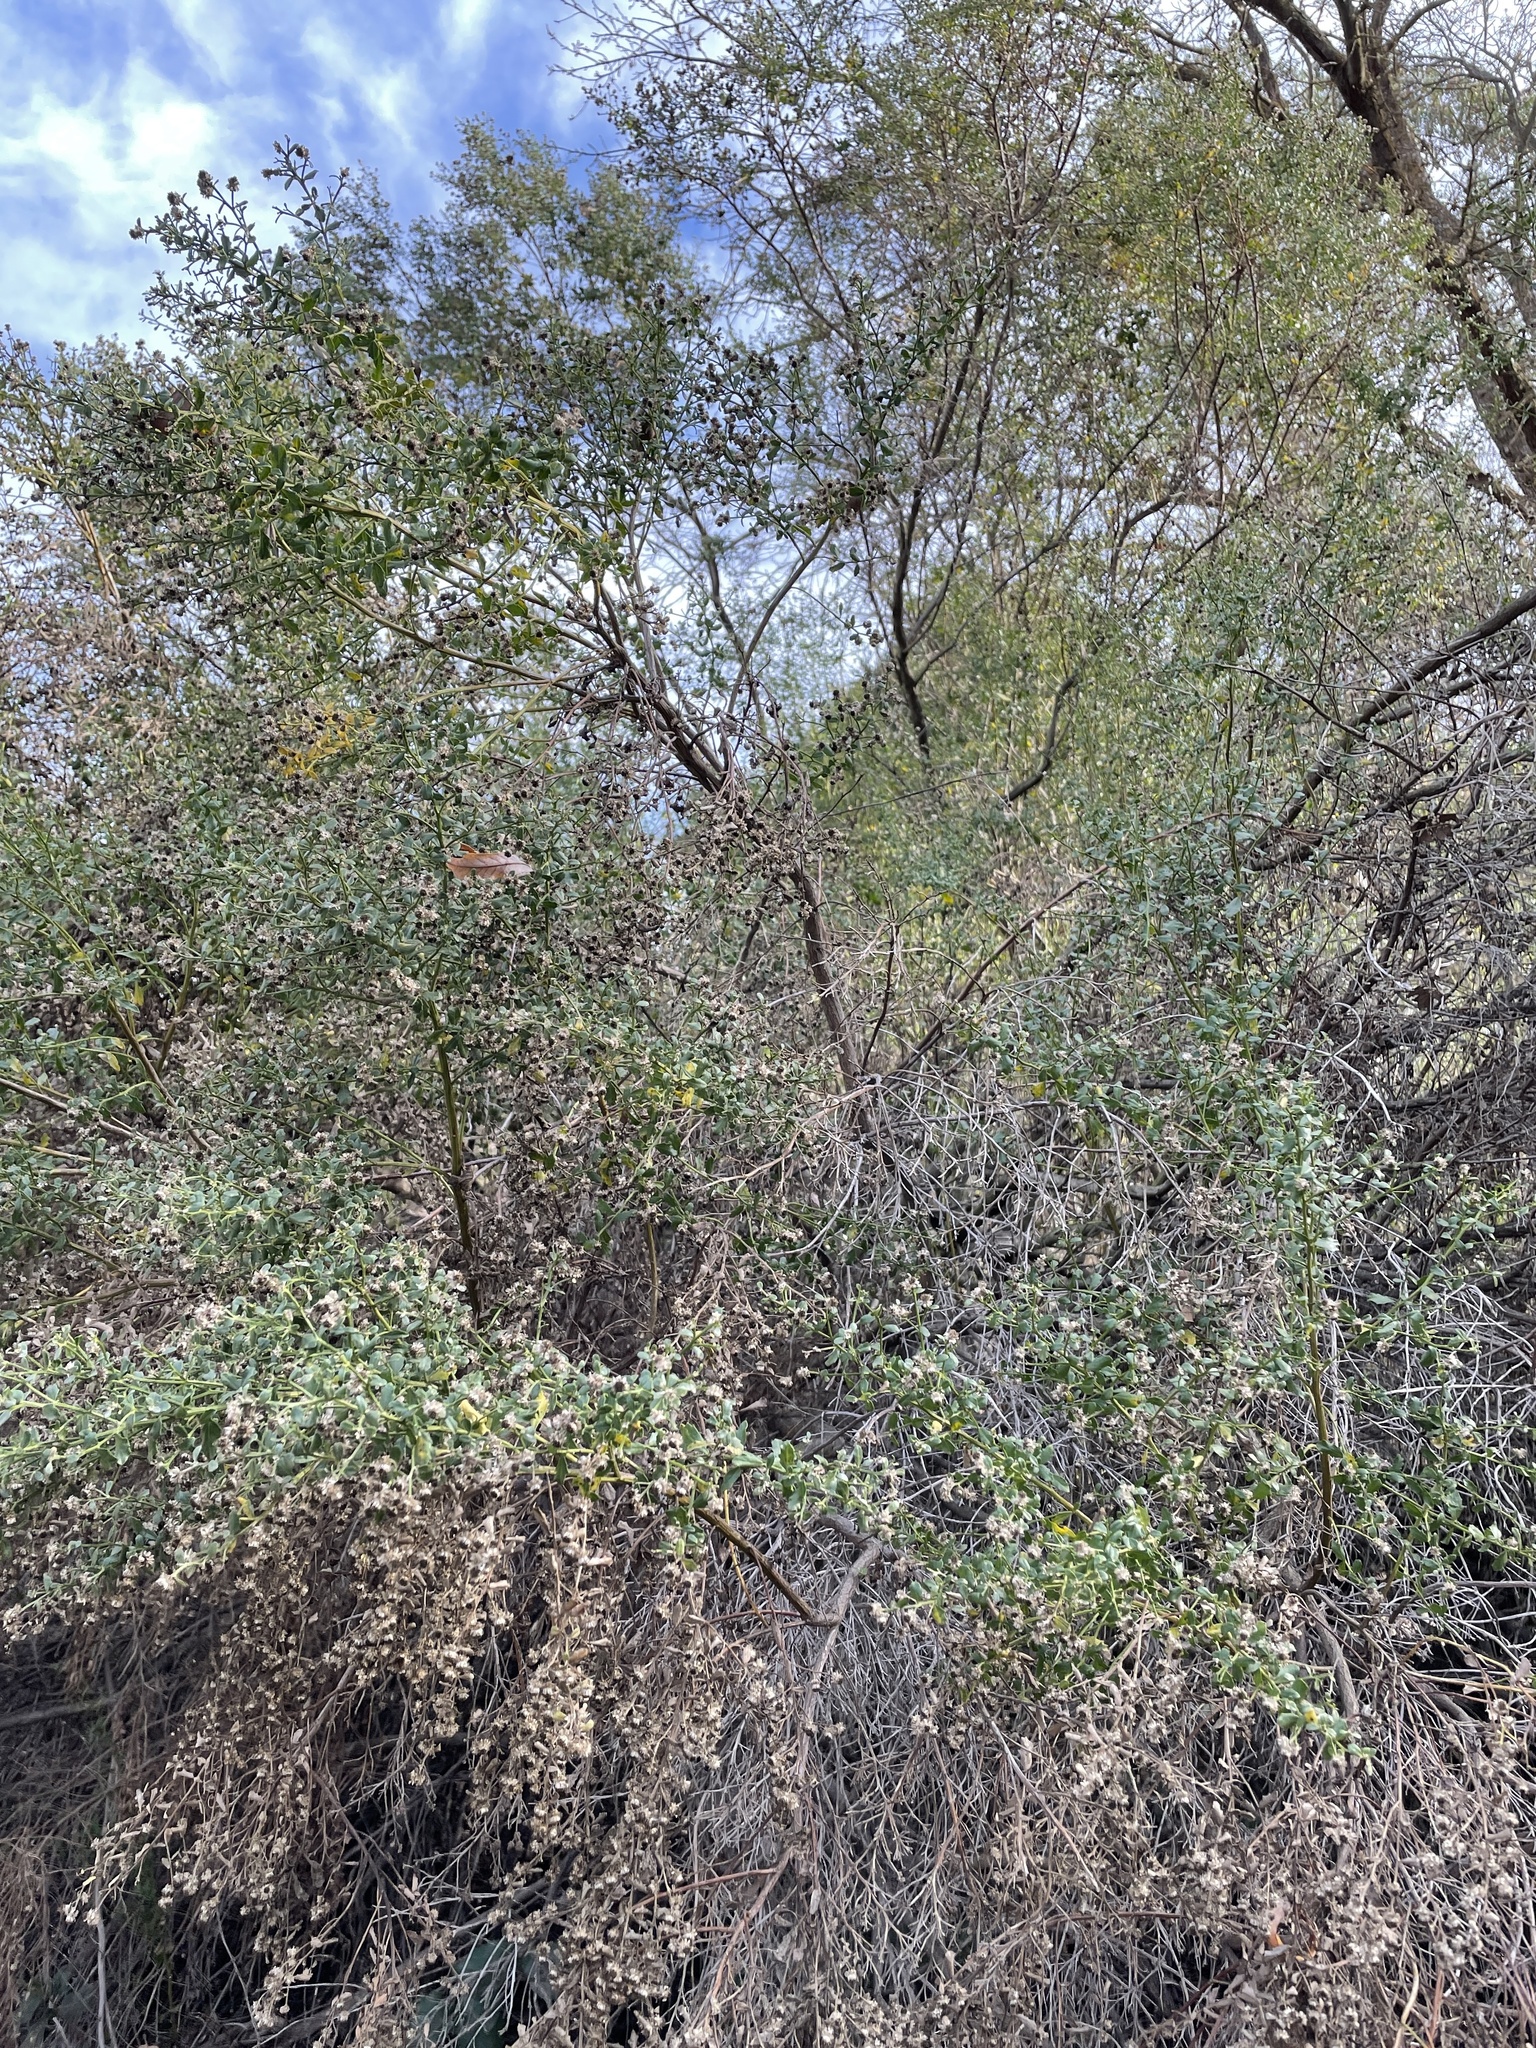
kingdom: Plantae
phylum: Tracheophyta
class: Magnoliopsida
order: Asterales
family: Asteraceae
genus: Baccharis
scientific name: Baccharis pilularis
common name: Coyotebrush
